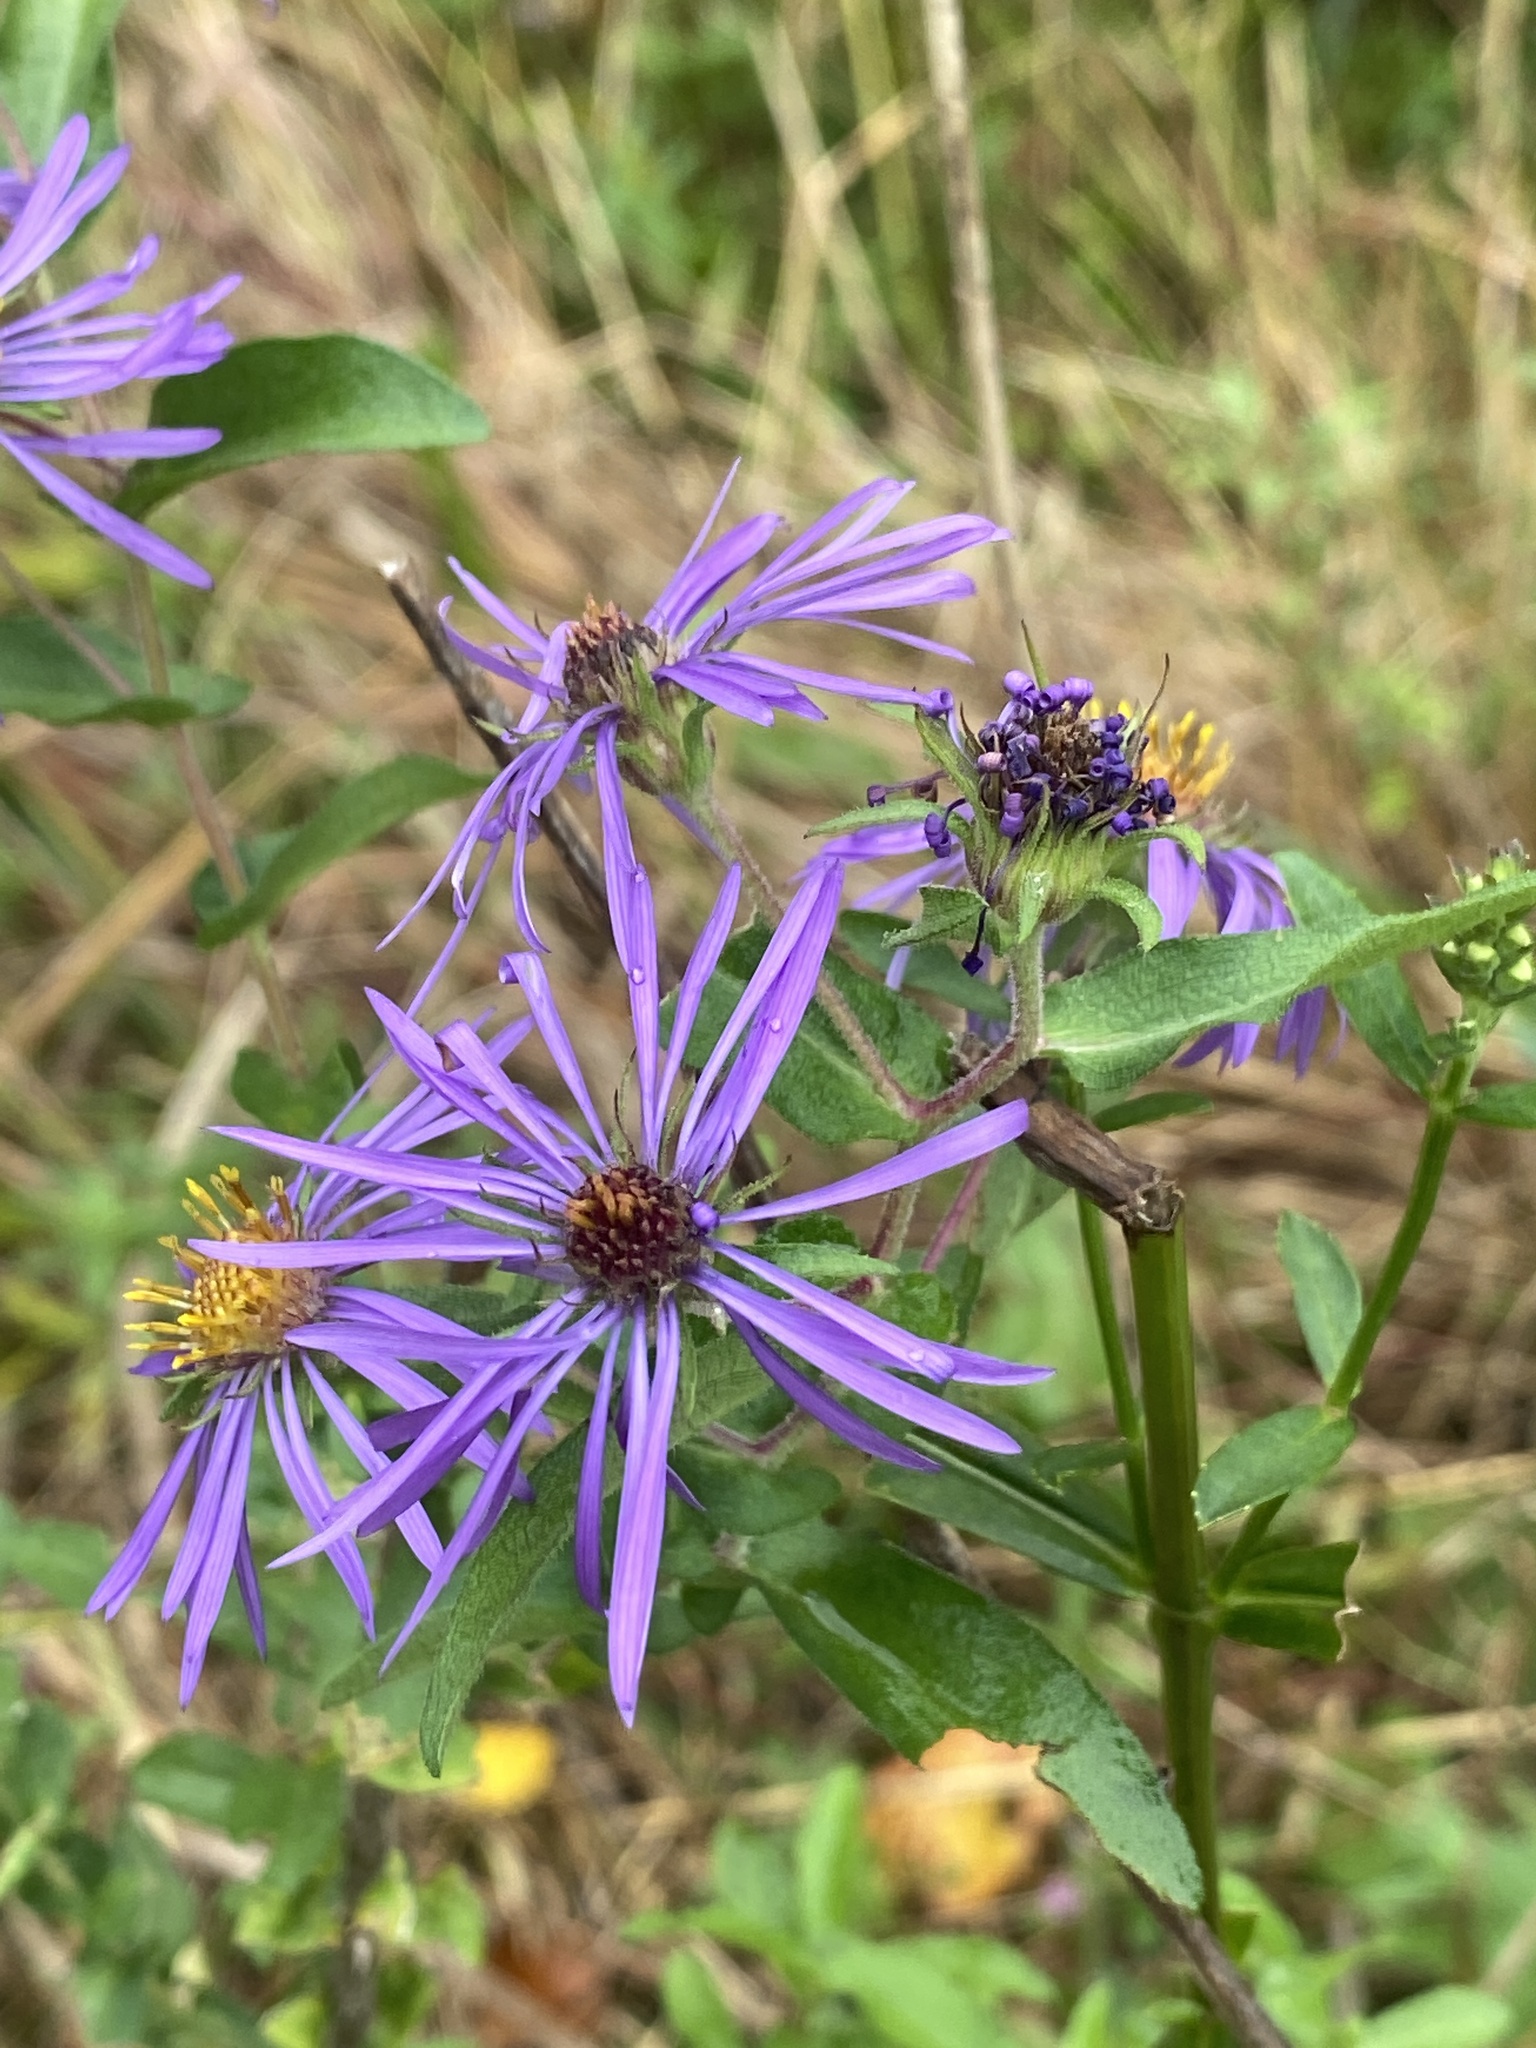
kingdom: Plantae
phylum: Tracheophyta
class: Magnoliopsida
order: Asterales
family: Asteraceae
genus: Symphyotrichum
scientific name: Symphyotrichum novae-angliae
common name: Michaelmas daisy
